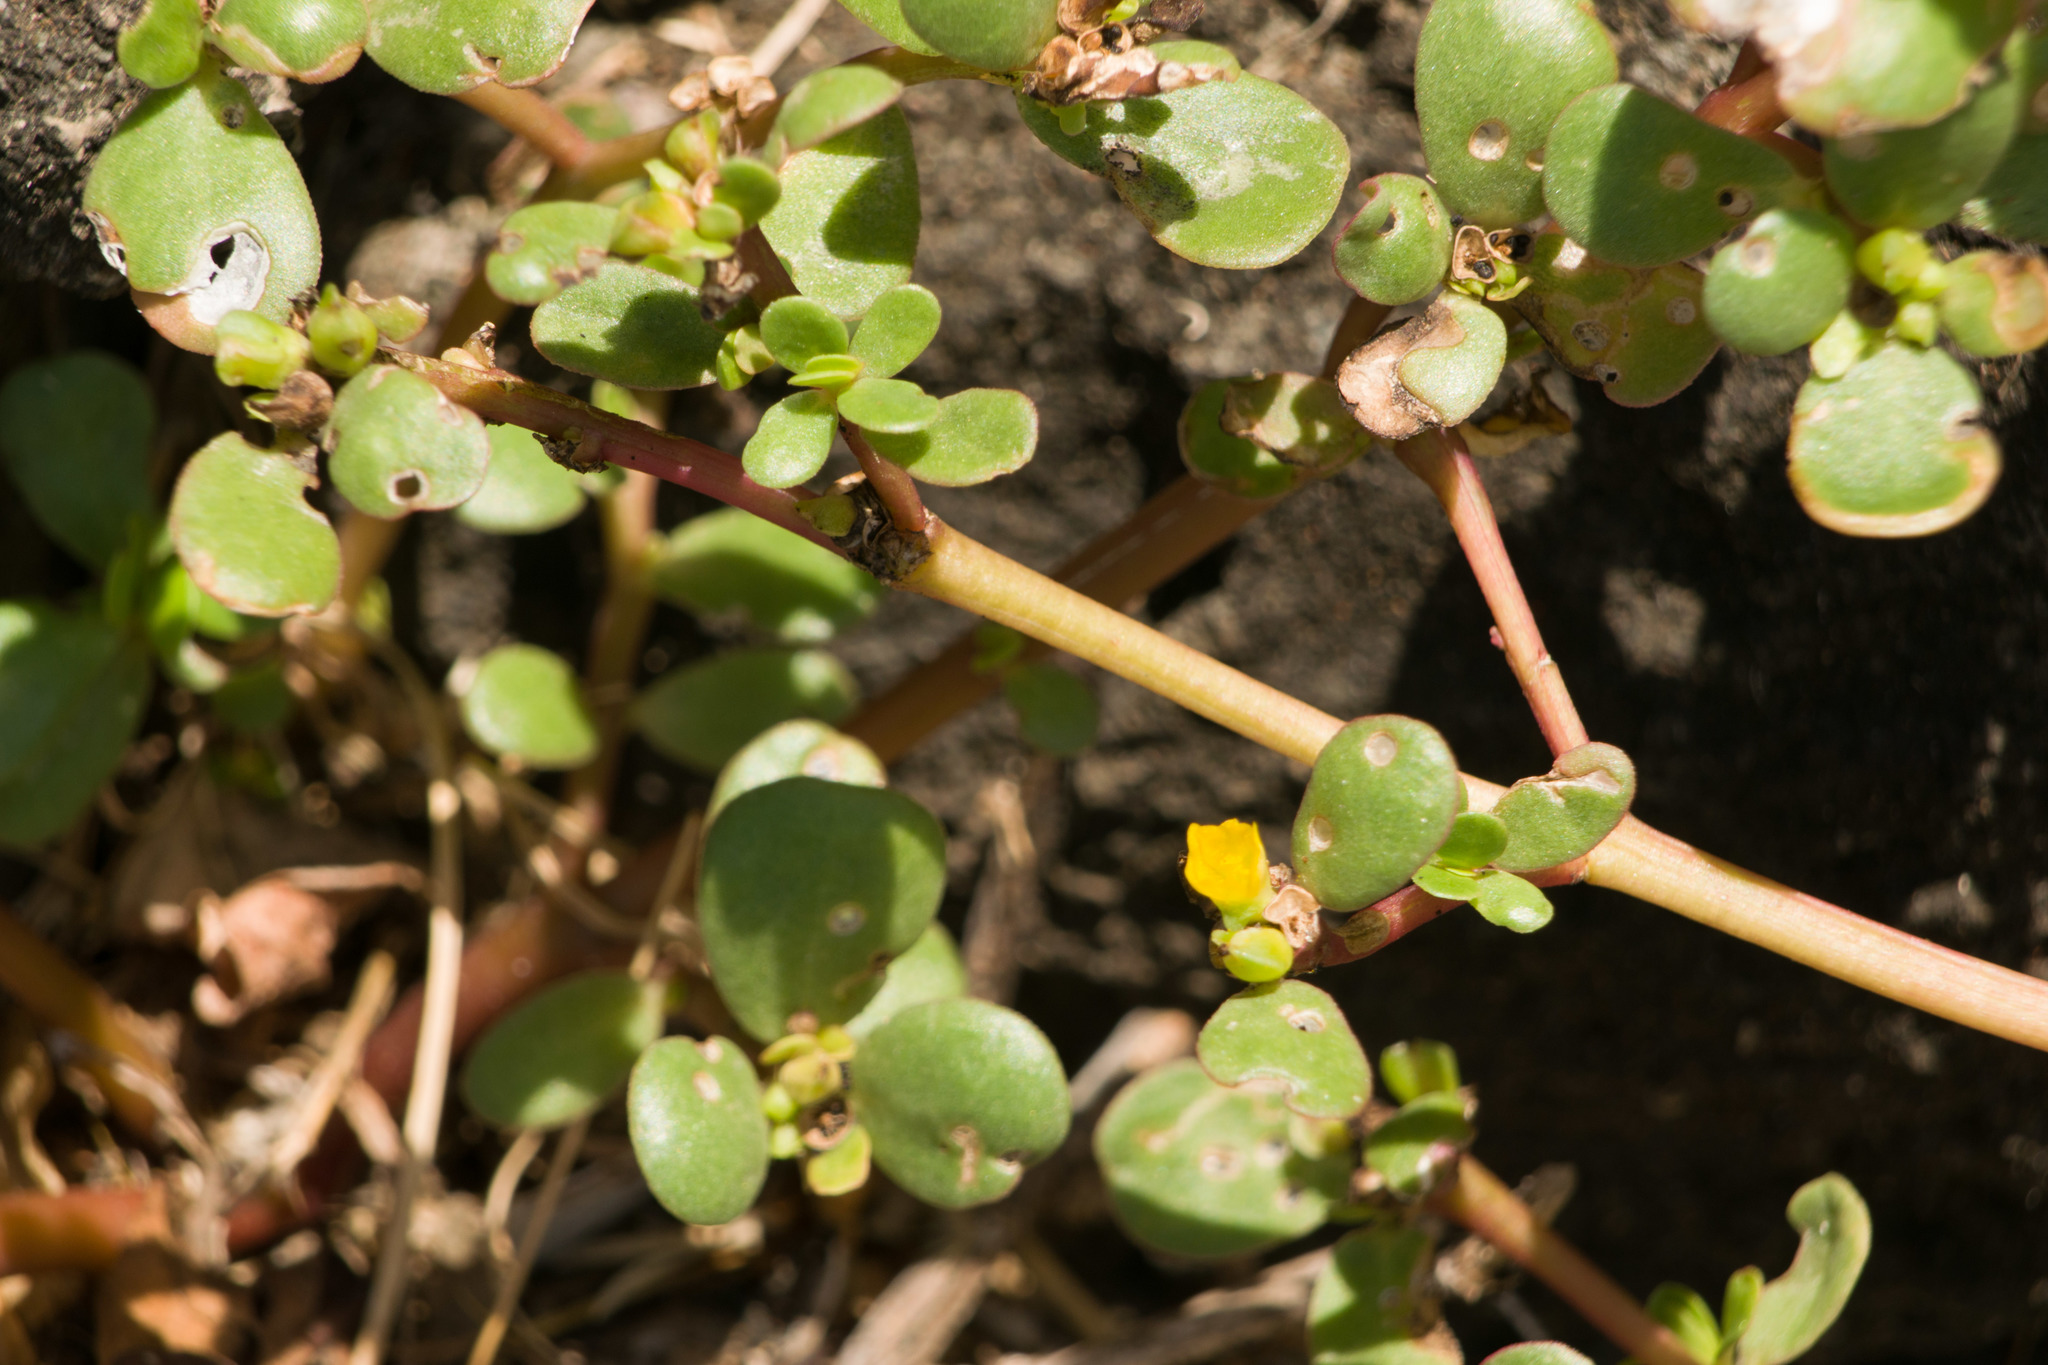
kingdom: Plantae
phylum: Tracheophyta
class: Magnoliopsida
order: Caryophyllales
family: Portulacaceae
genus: Portulaca
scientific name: Portulaca oleracea
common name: Common purslane
